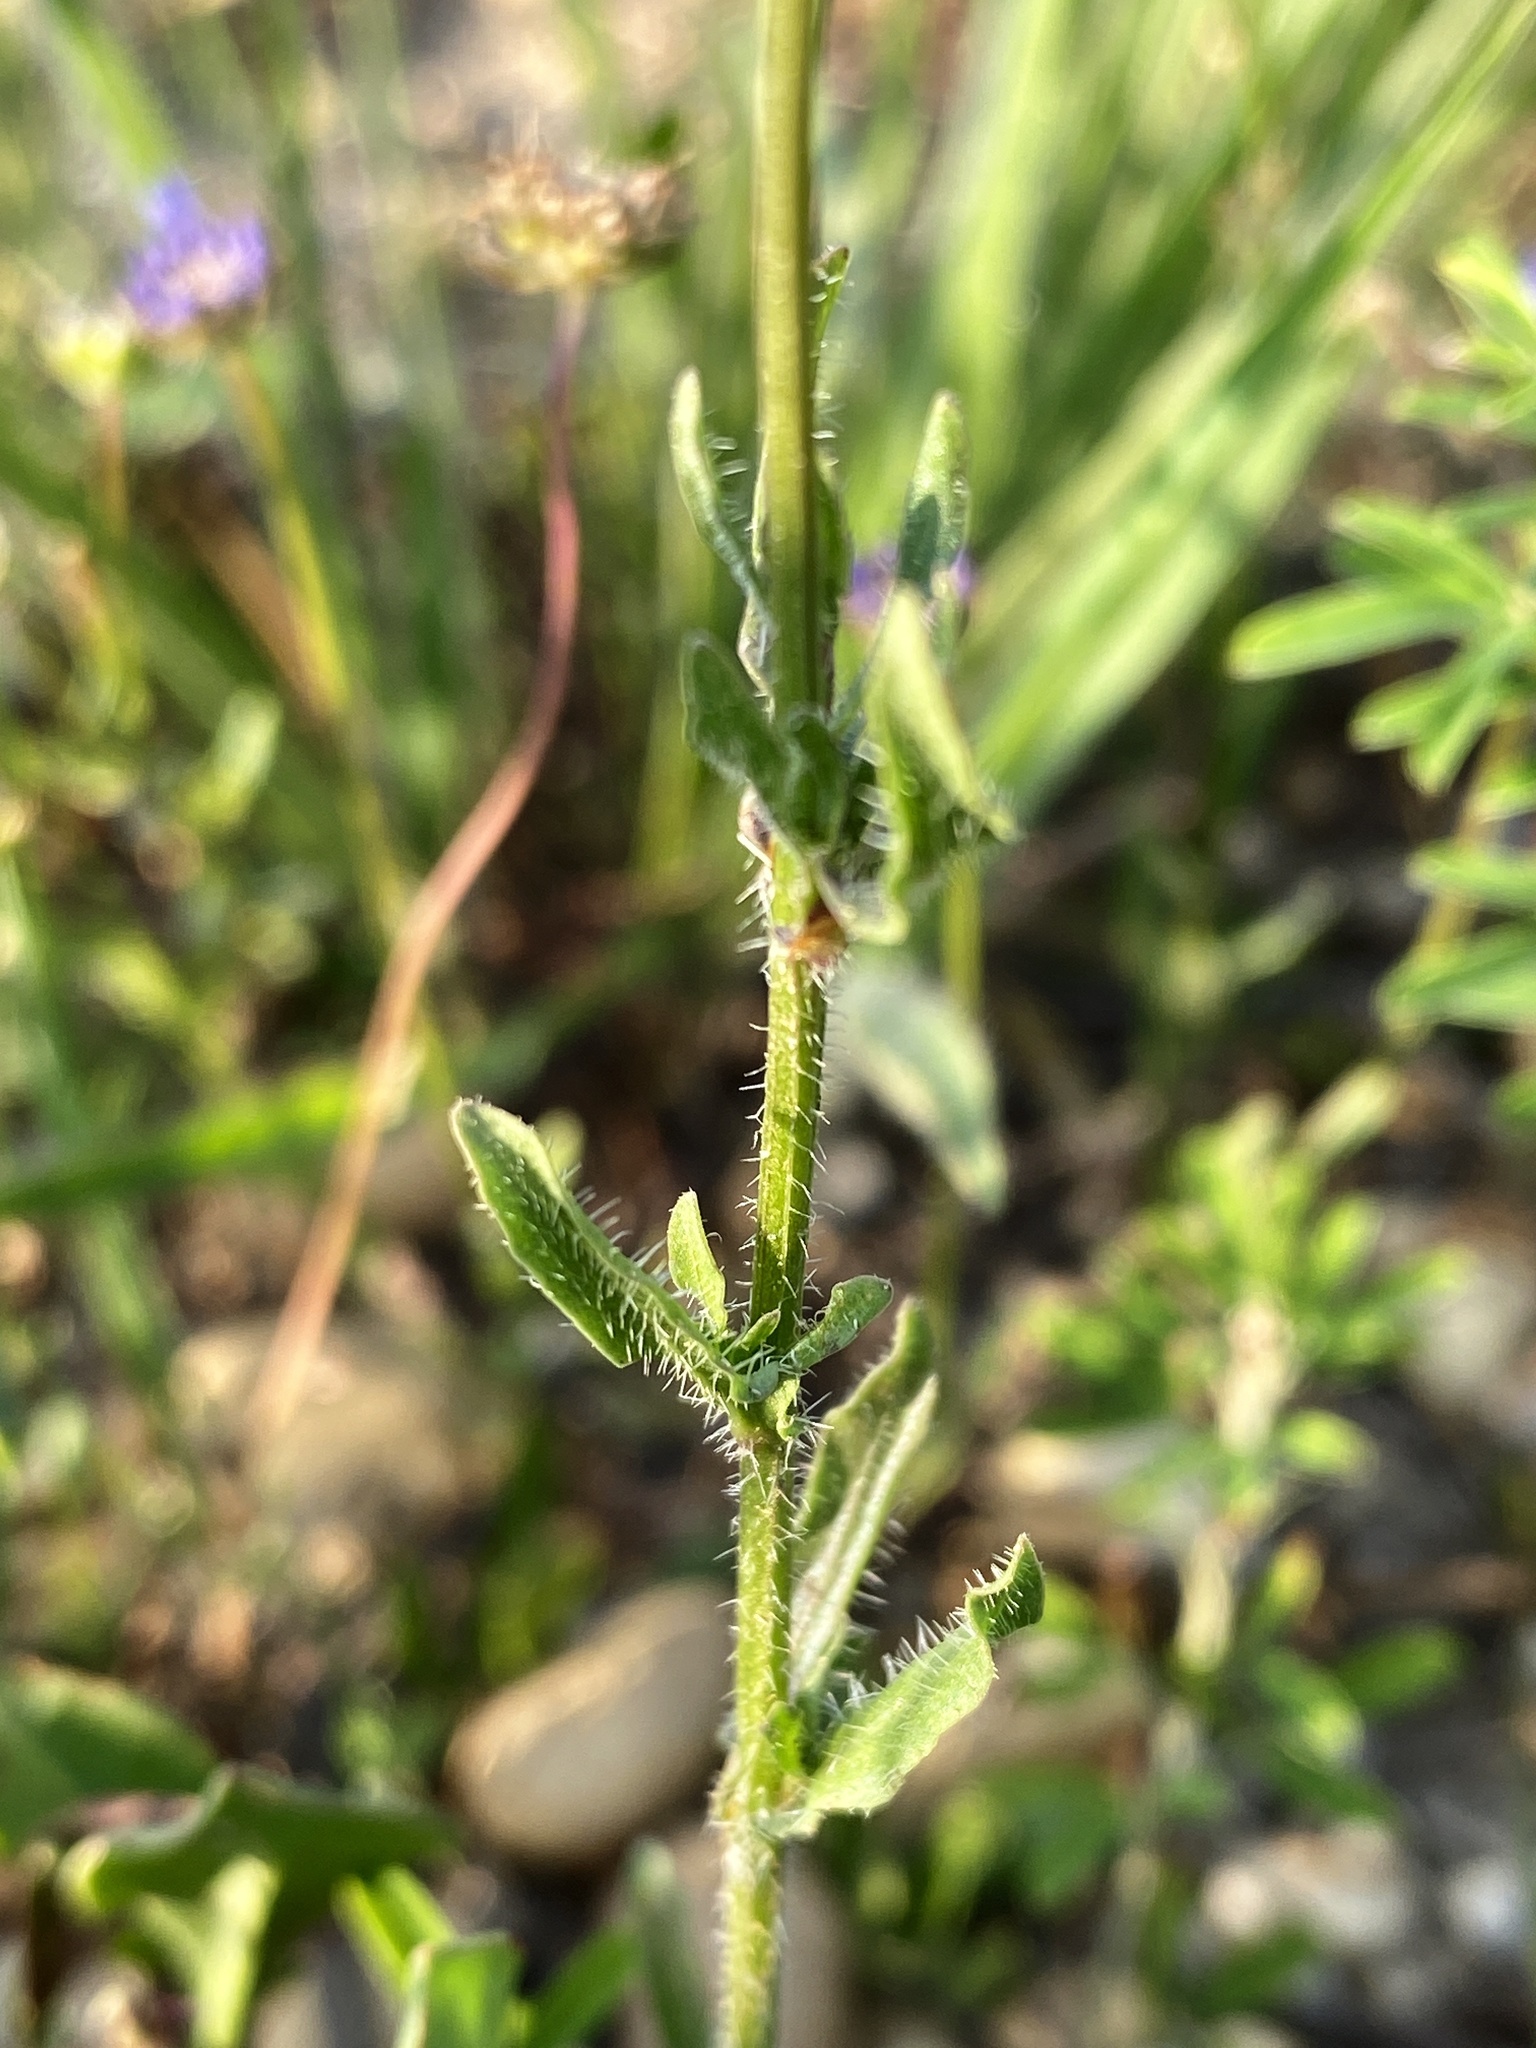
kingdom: Plantae
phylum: Tracheophyta
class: Magnoliopsida
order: Asterales
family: Campanulaceae
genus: Jasione
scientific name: Jasione montana
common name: Sheep's-bit
